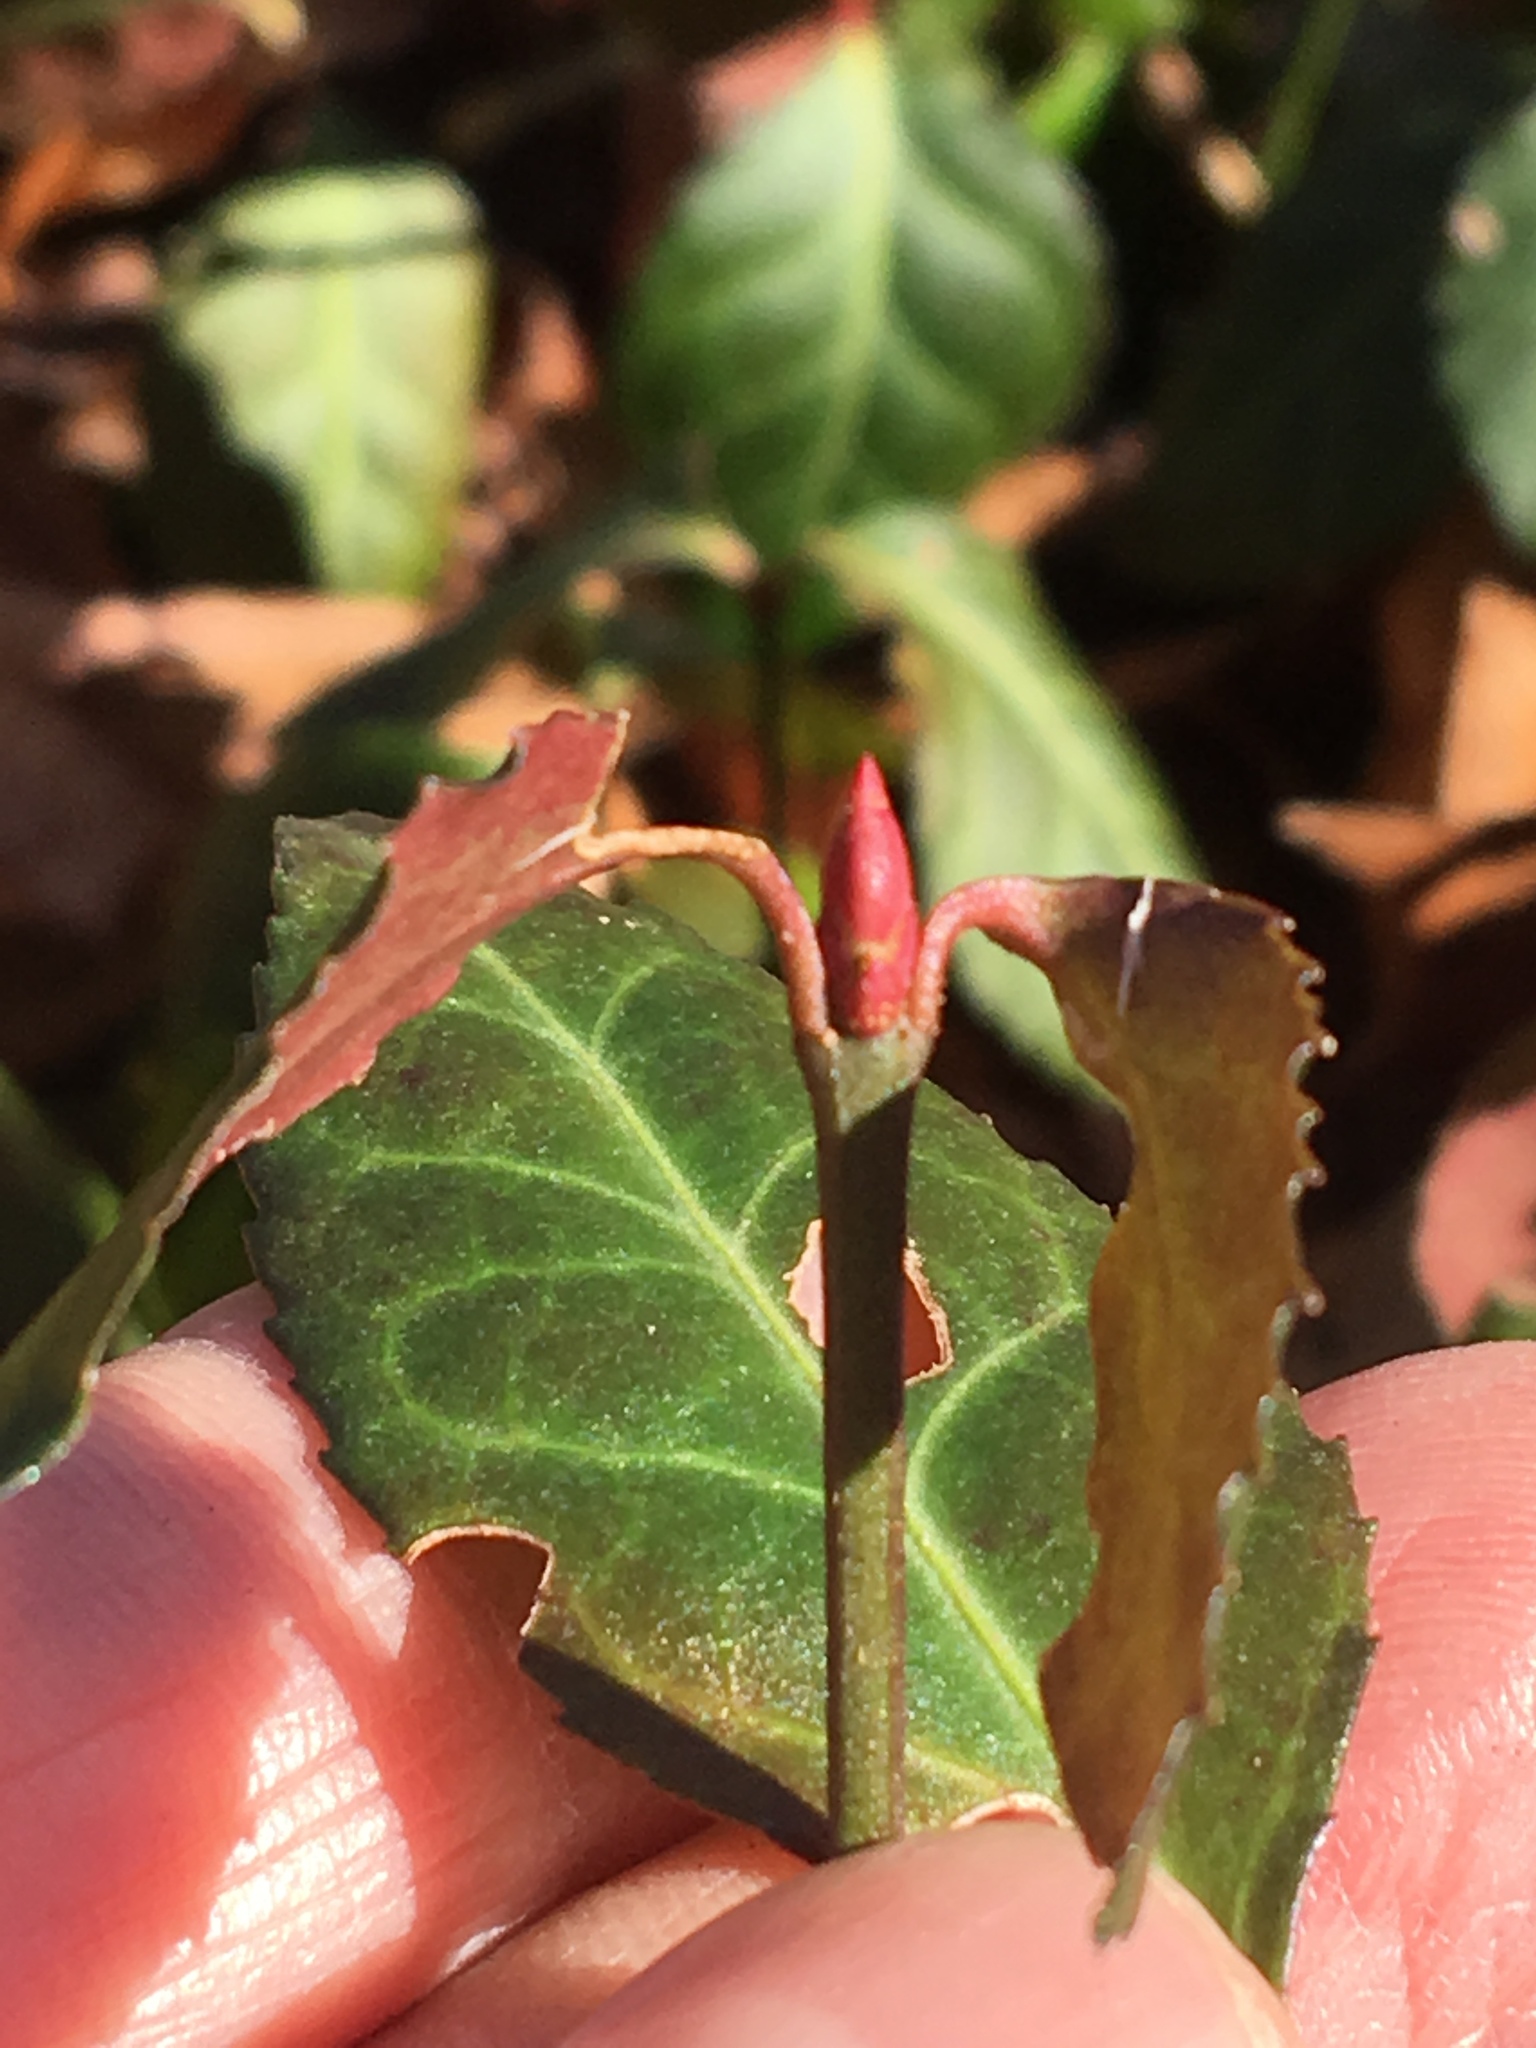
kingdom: Plantae
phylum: Tracheophyta
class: Magnoliopsida
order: Celastrales
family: Celastraceae
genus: Euonymus
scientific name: Euonymus fortunei
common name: Climbing euonymus
